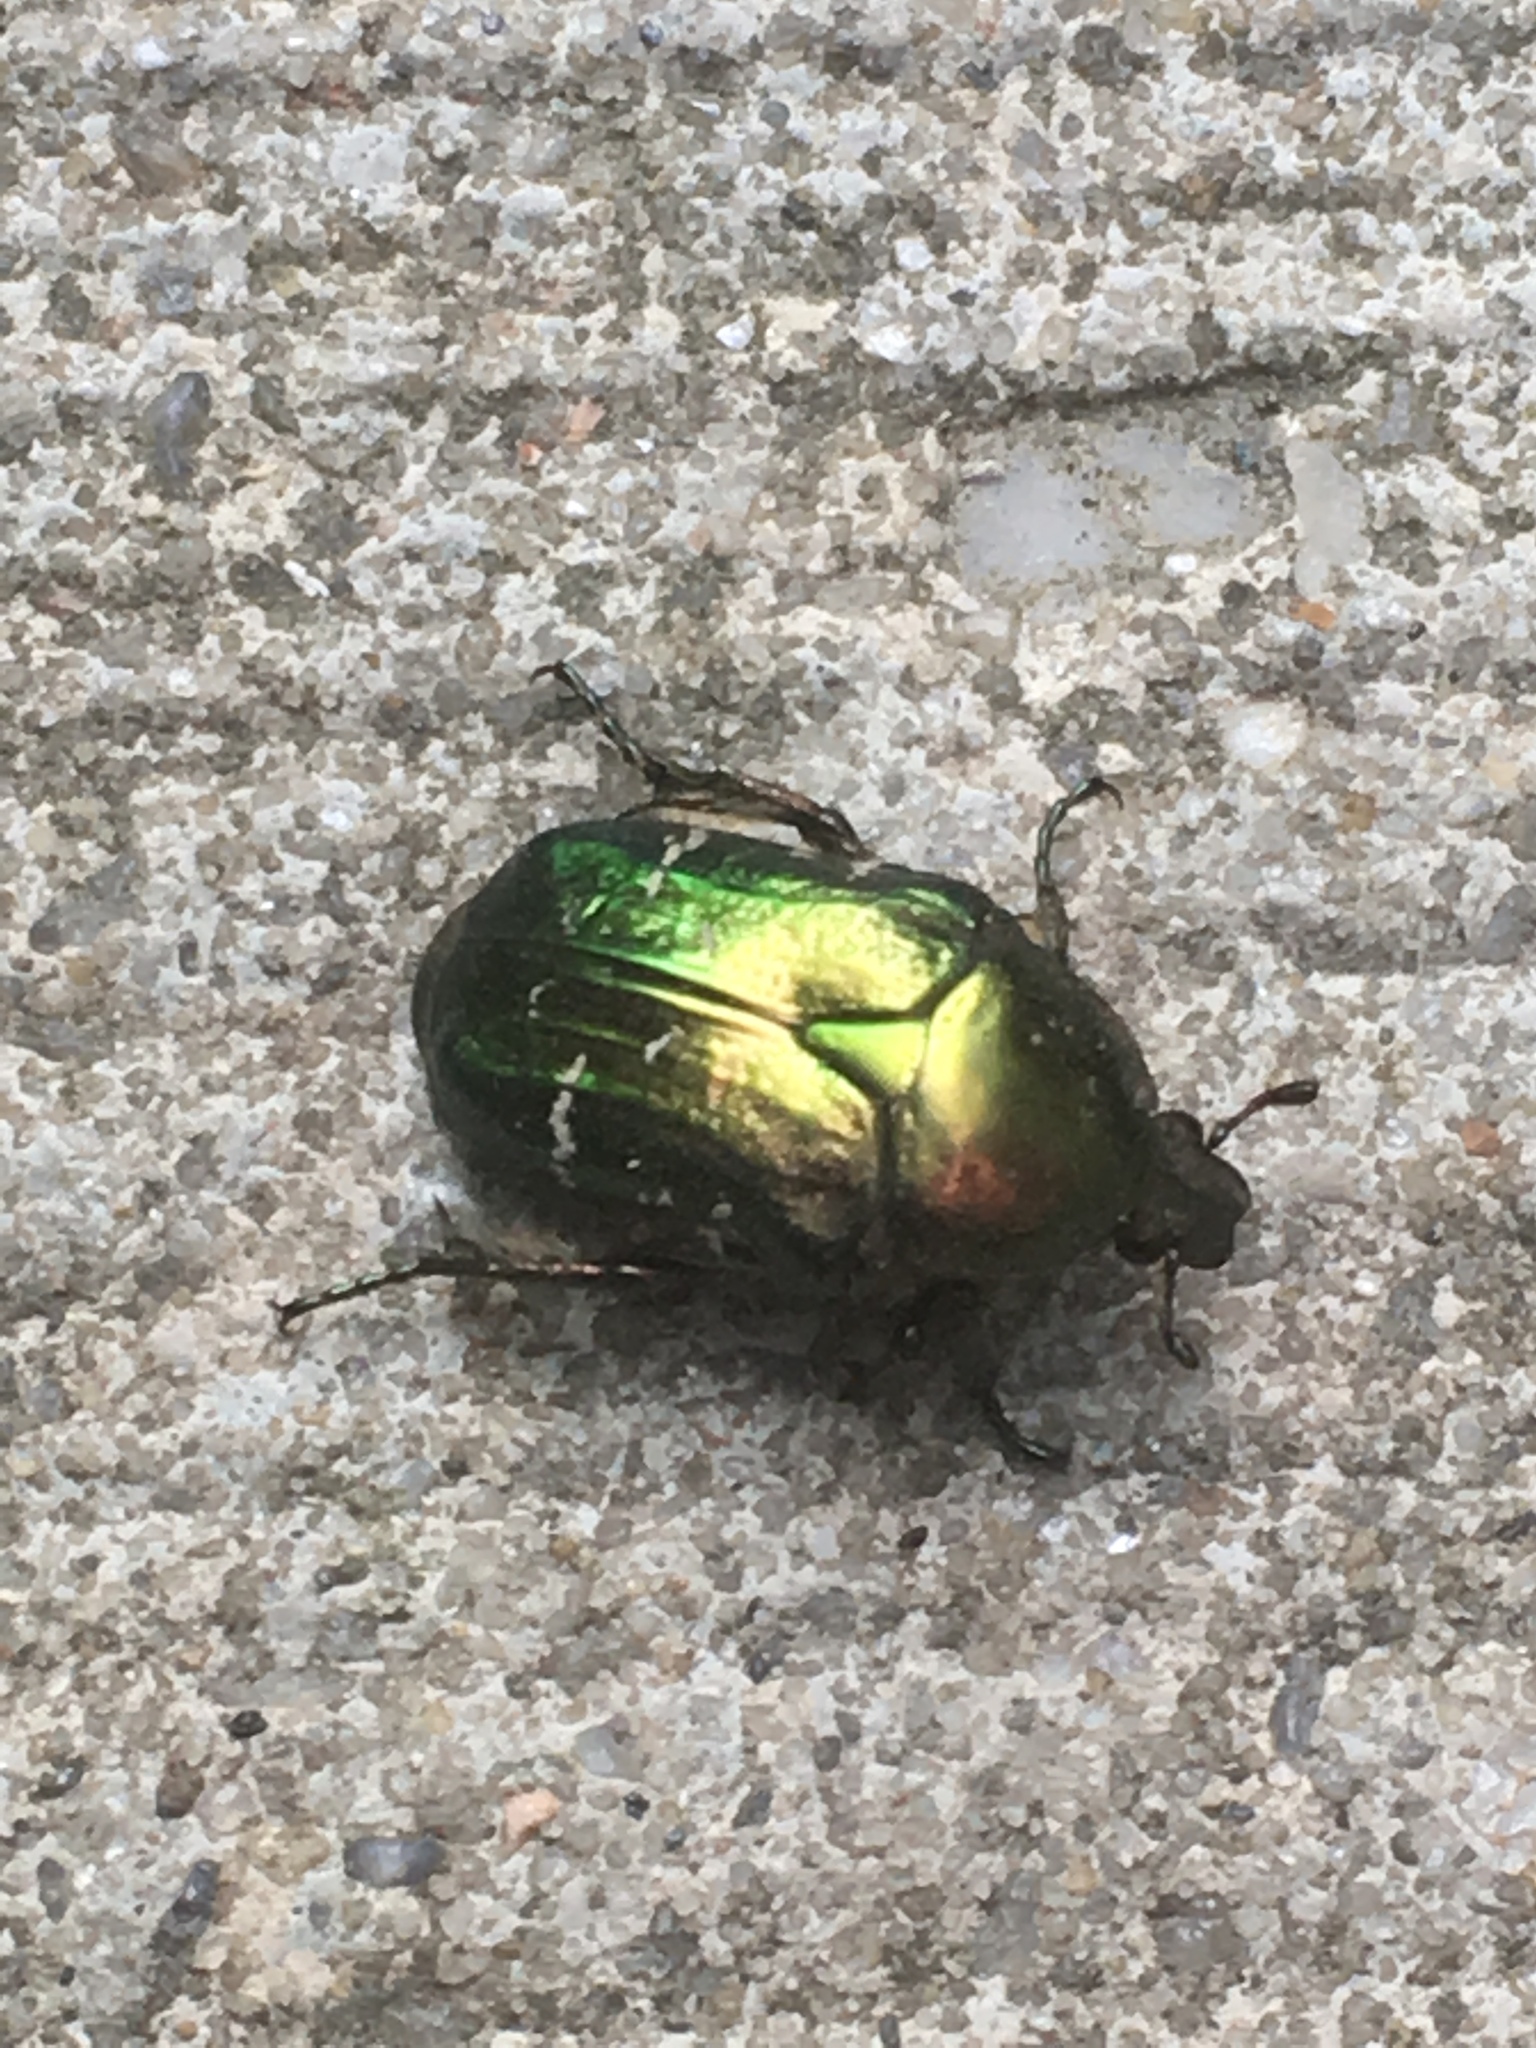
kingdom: Animalia
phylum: Arthropoda
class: Insecta
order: Coleoptera
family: Scarabaeidae
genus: Cetonia
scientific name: Cetonia aurata
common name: Rose chafer
